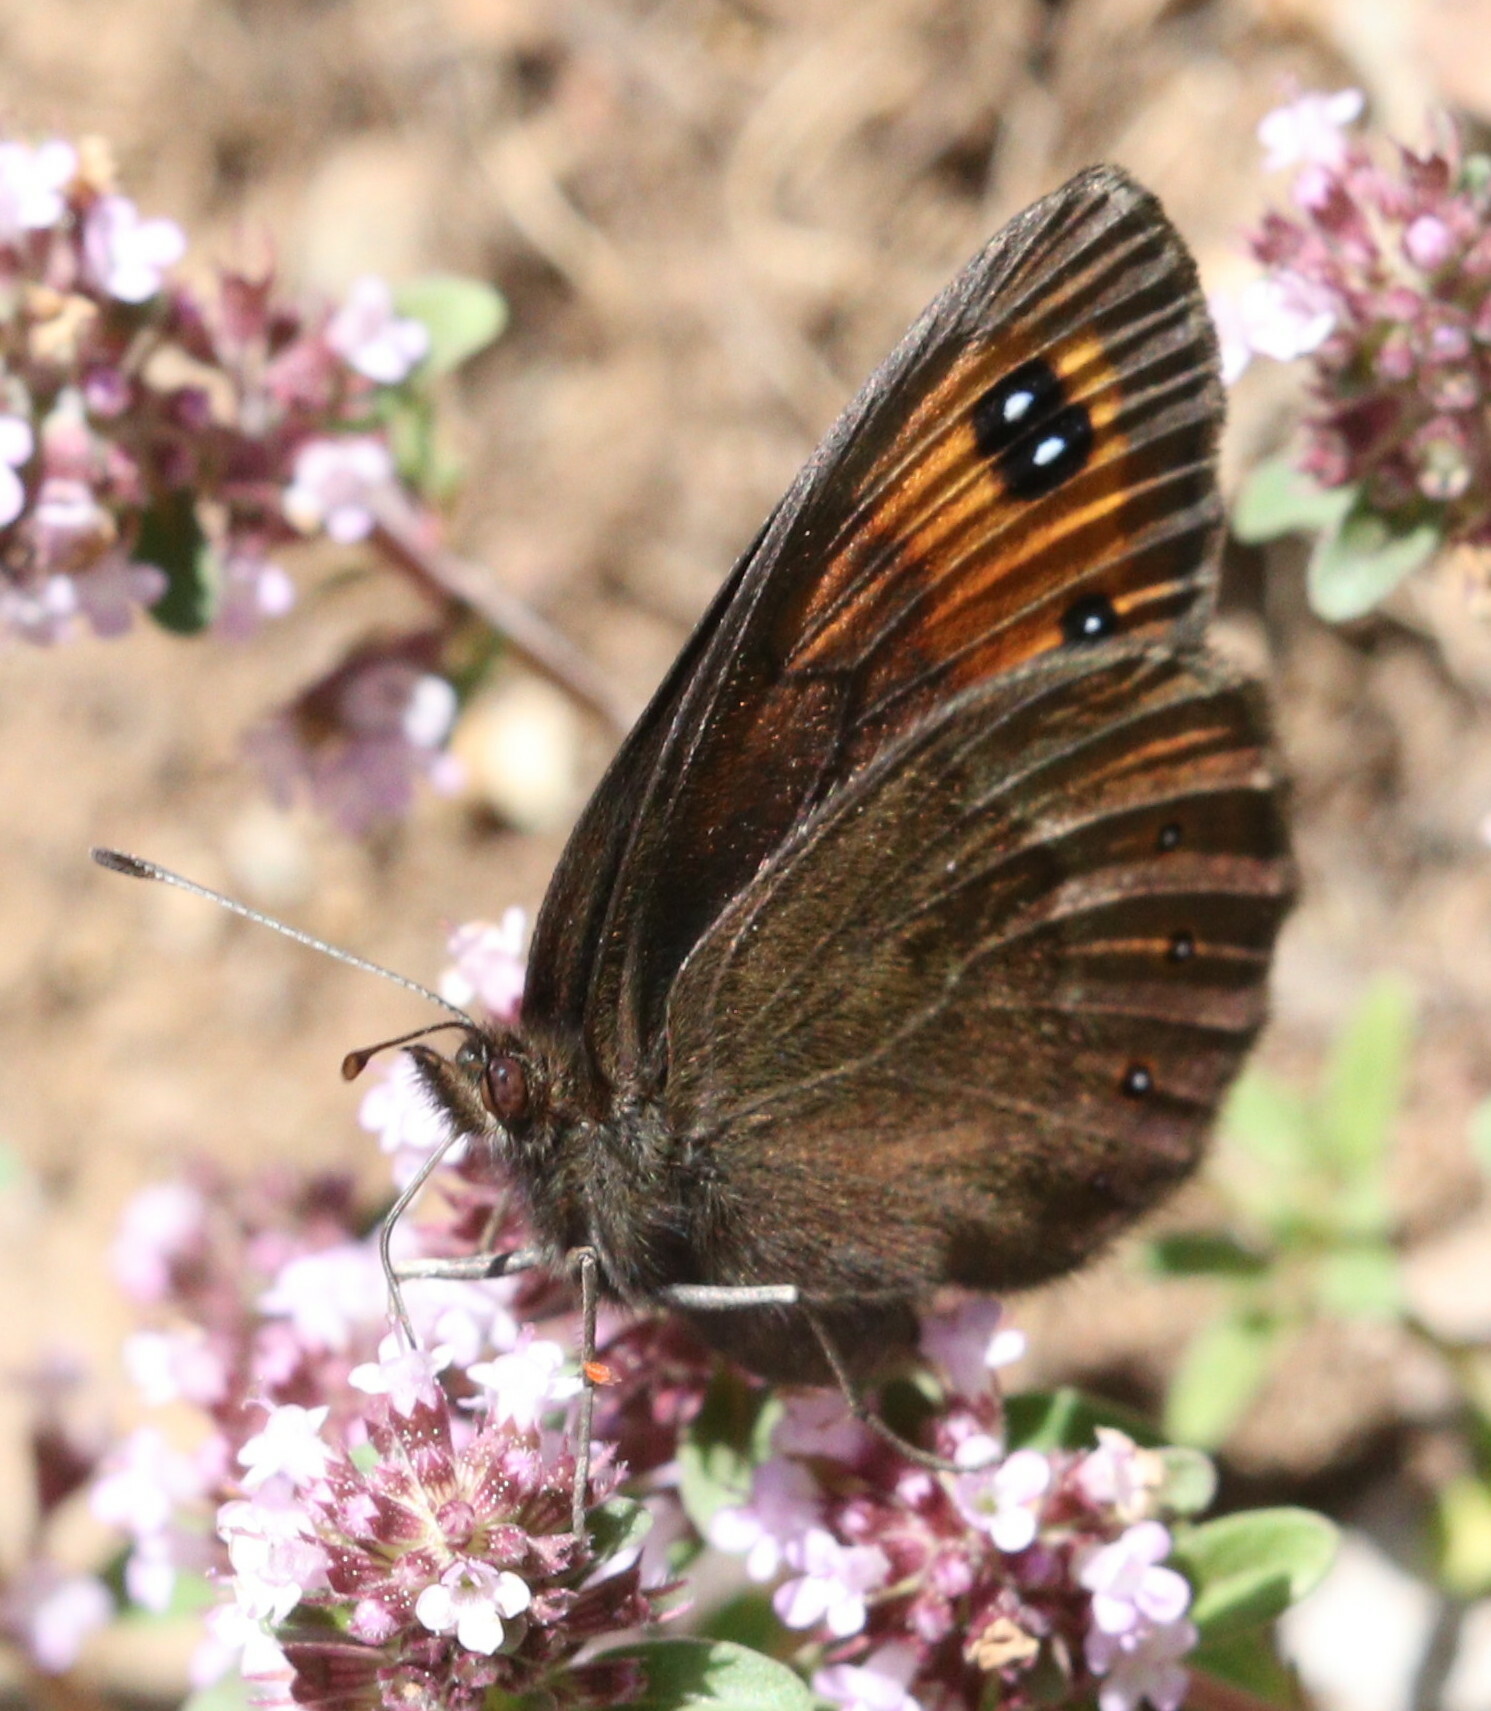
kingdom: Animalia
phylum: Arthropoda
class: Insecta
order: Lepidoptera
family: Nymphalidae
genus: Erebia
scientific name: Erebia meolans
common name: Piedmont ringlet
